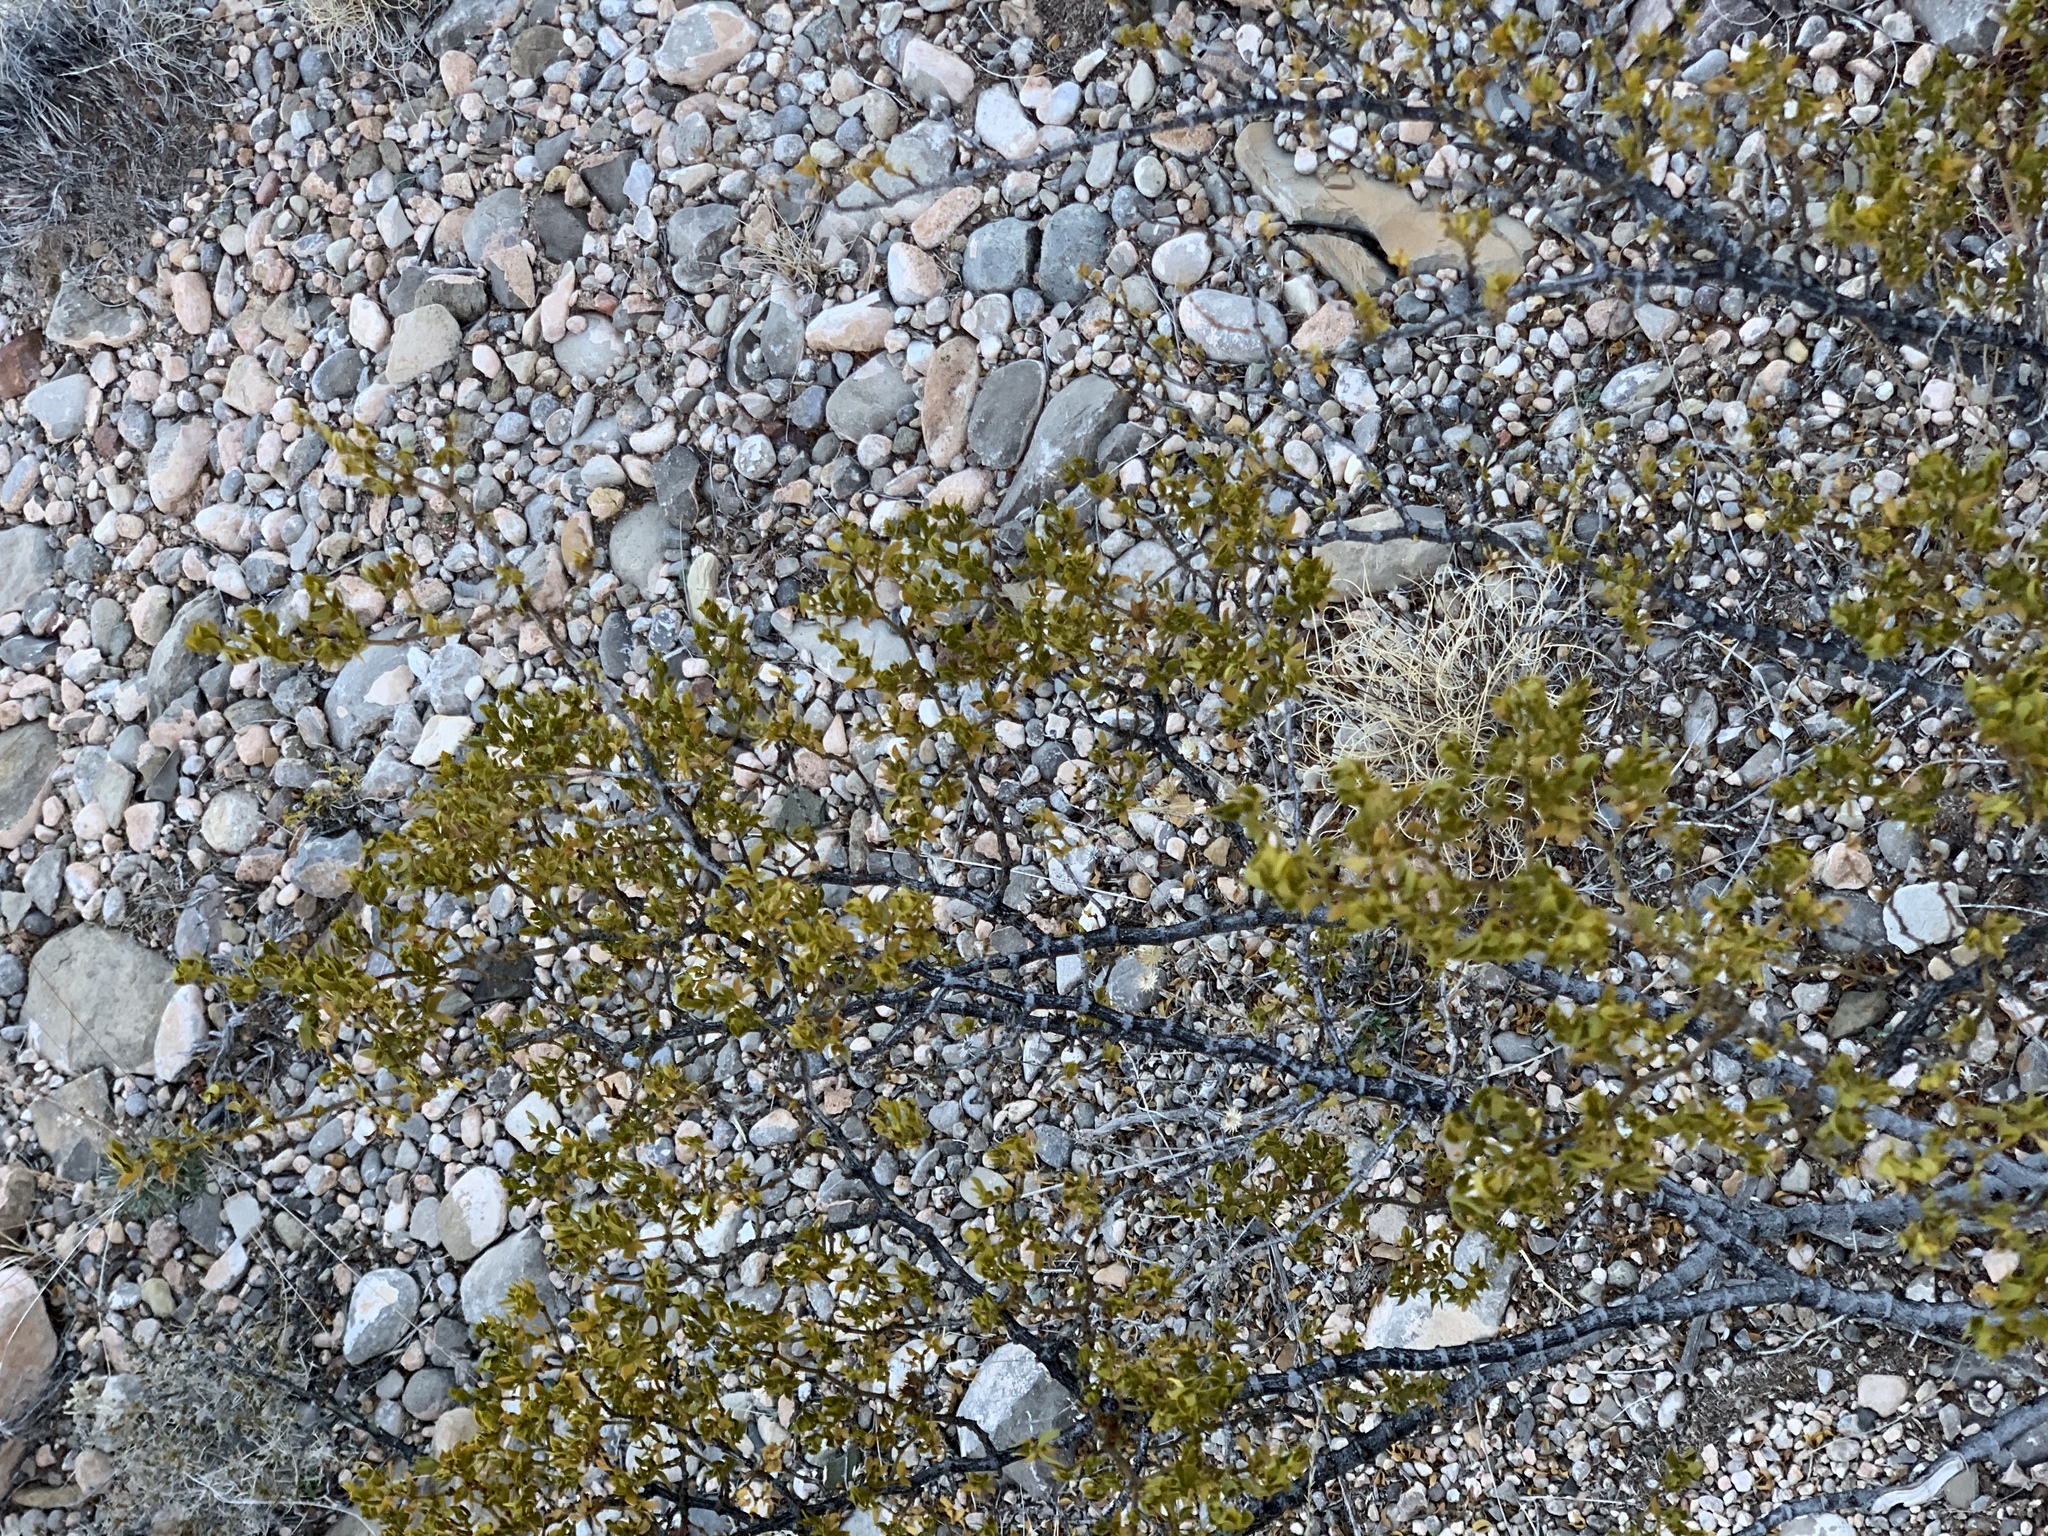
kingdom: Plantae
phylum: Tracheophyta
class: Magnoliopsida
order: Zygophyllales
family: Zygophyllaceae
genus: Larrea
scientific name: Larrea tridentata
